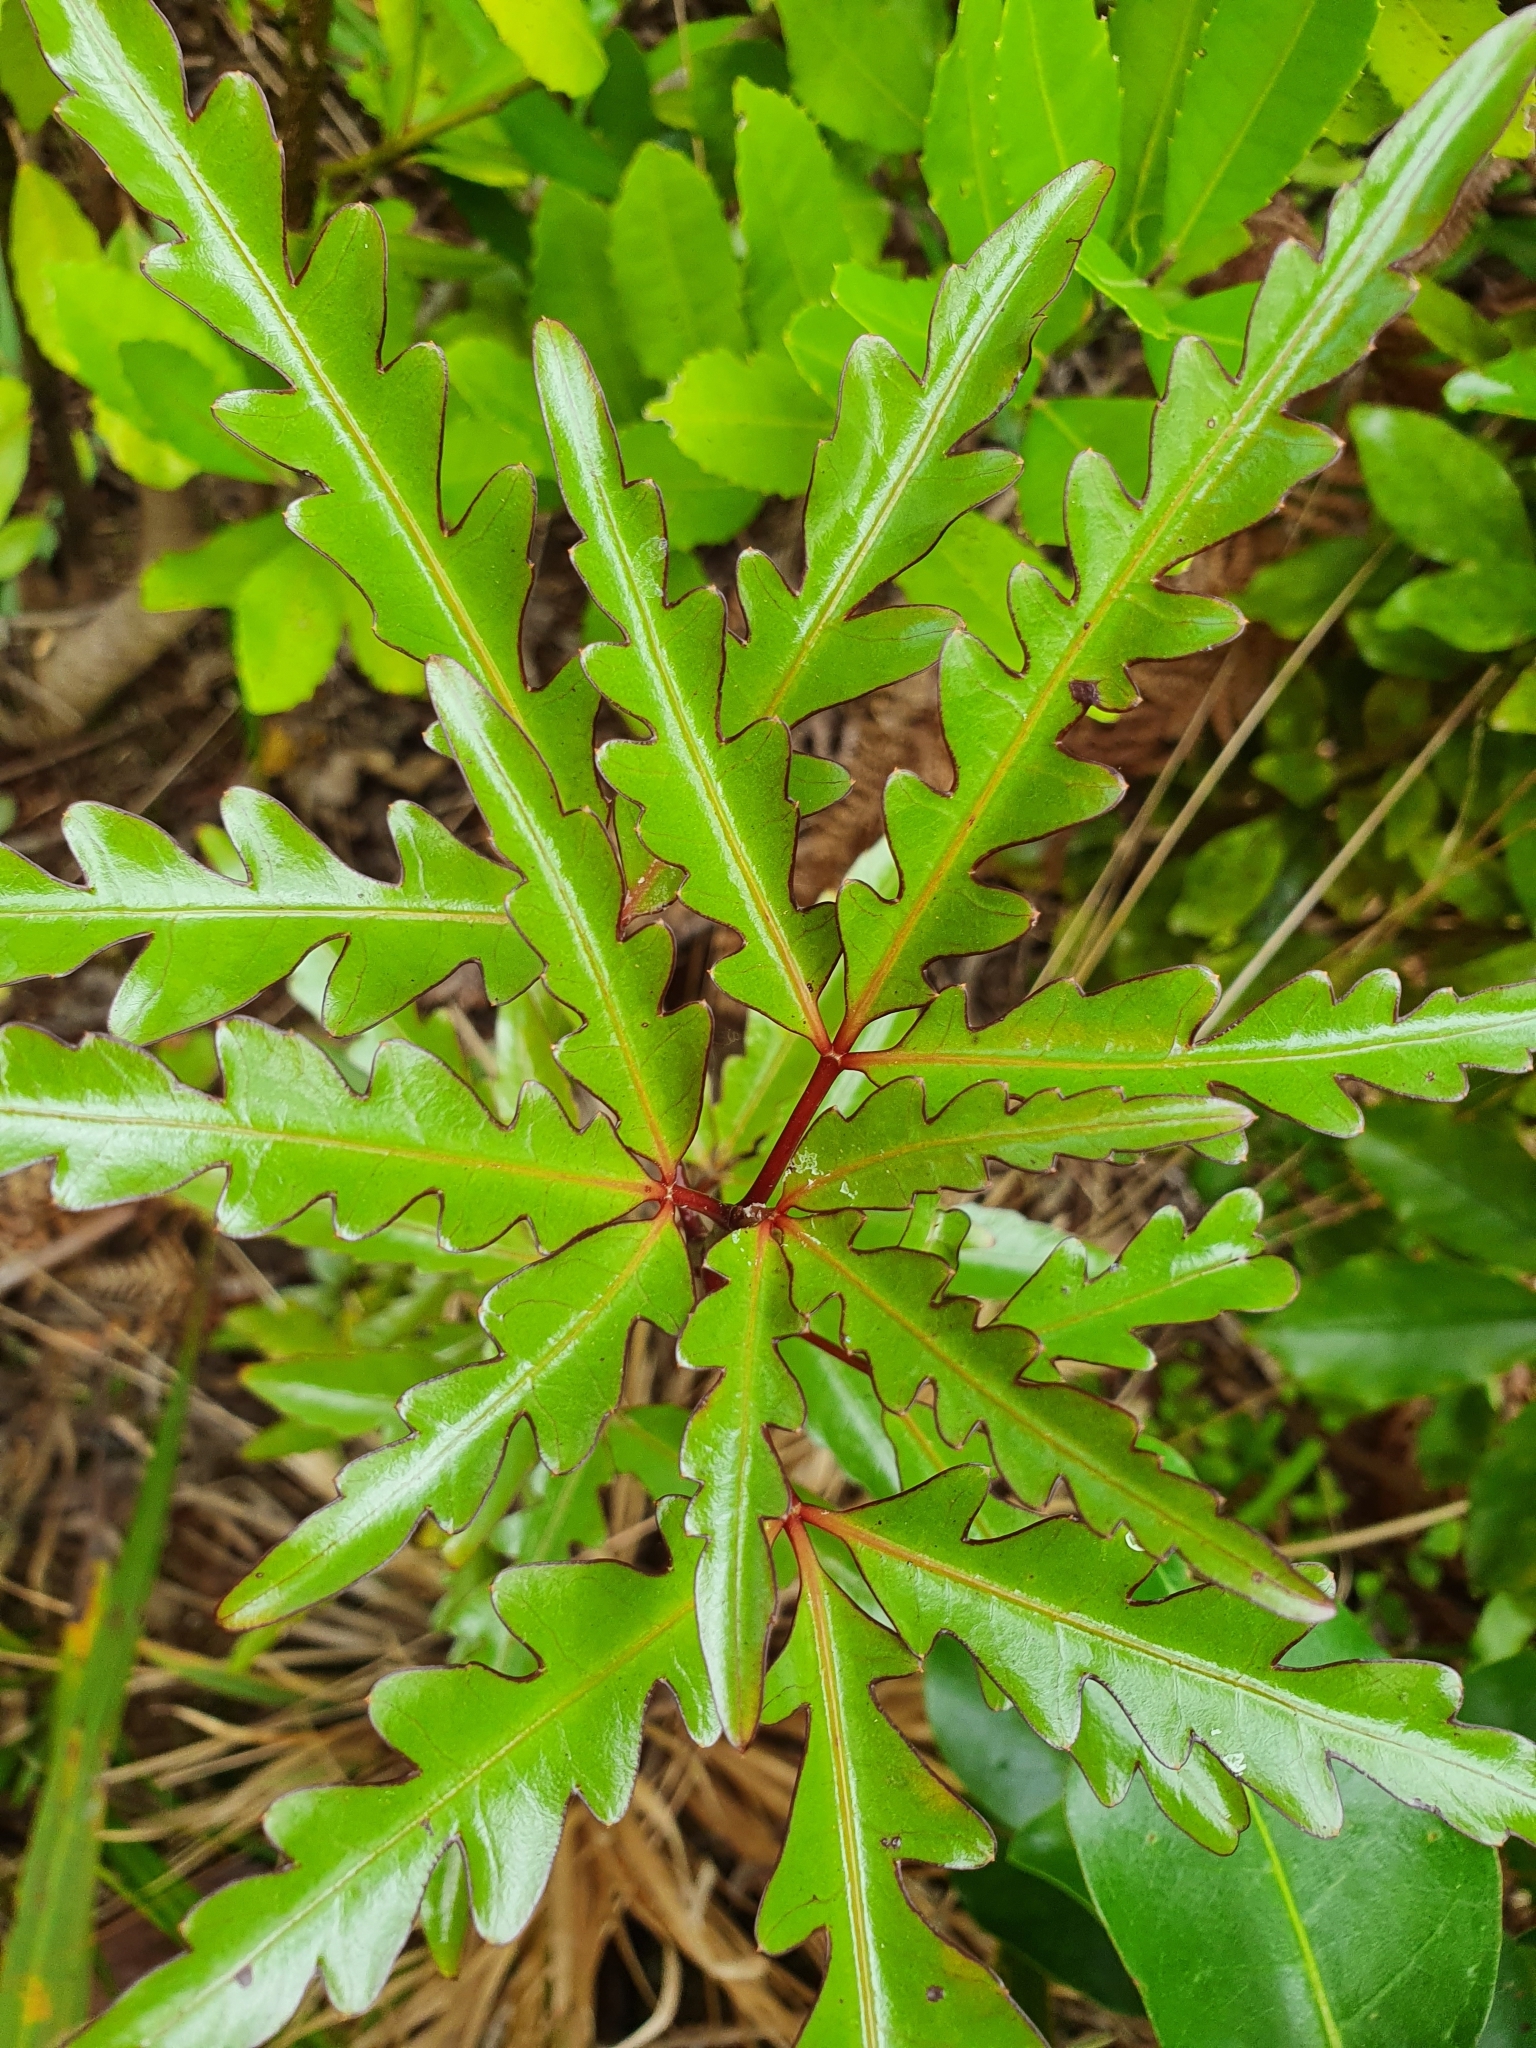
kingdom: Plantae
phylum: Tracheophyta
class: Magnoliopsida
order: Apiales
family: Araliaceae
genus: Raukaua
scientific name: Raukaua edgerleyi
